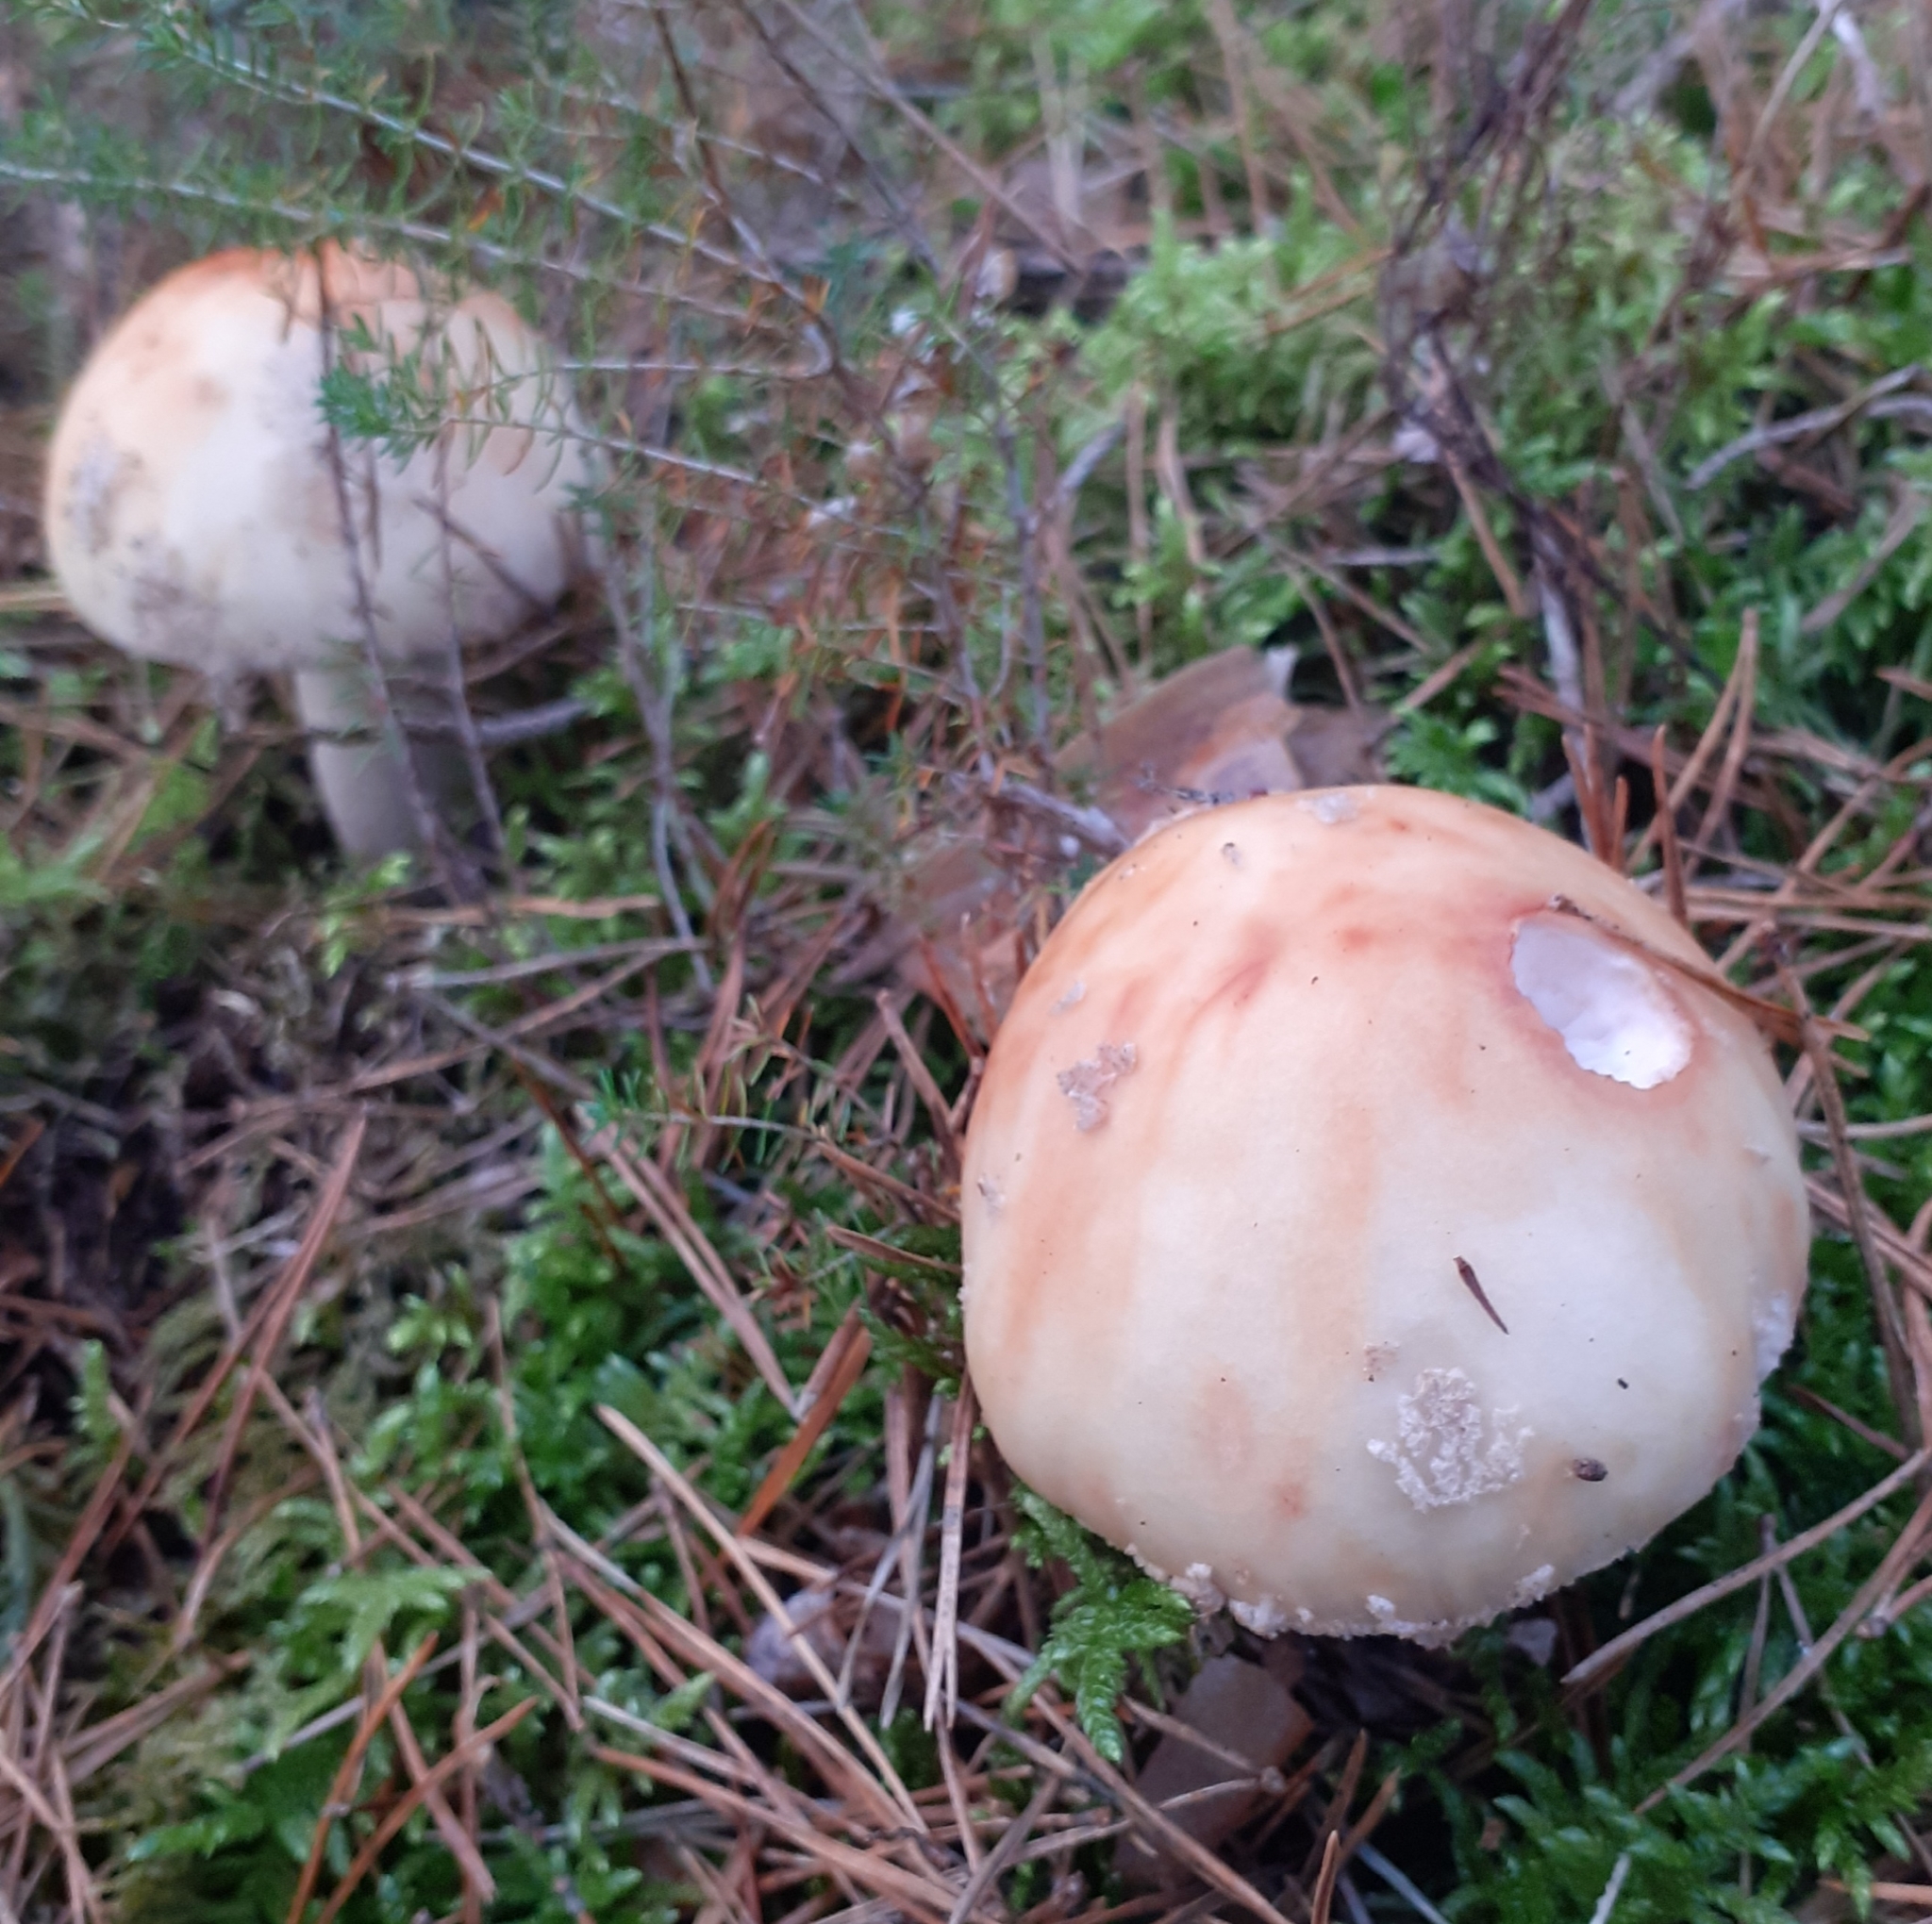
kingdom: Fungi
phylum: Basidiomycota
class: Agaricomycetes
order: Agaricales
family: Amanitaceae
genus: Amanita
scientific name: Amanita rubescens
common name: Blusher
